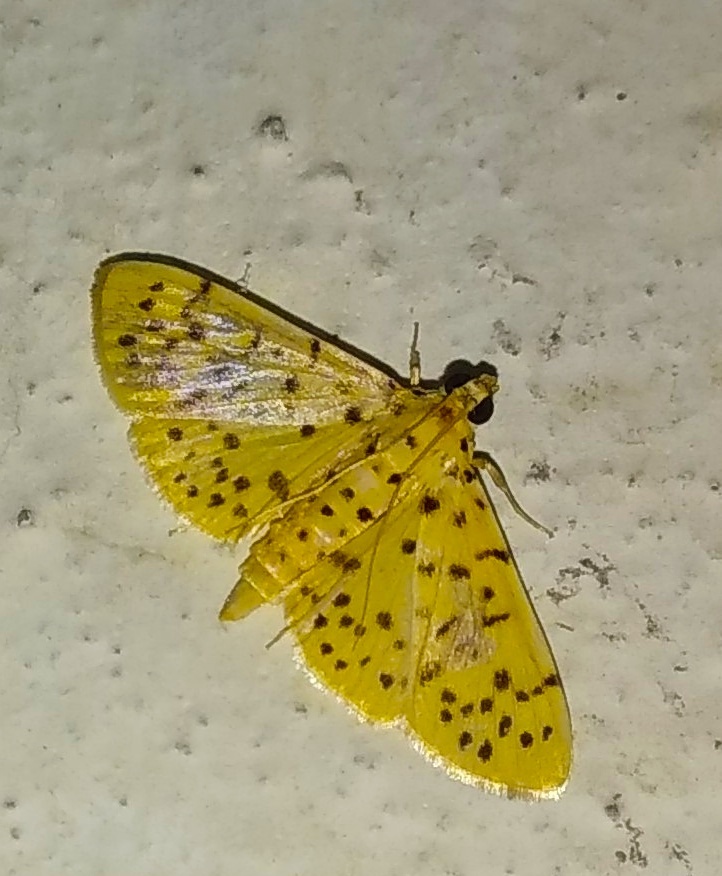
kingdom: Animalia
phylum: Arthropoda
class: Insecta
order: Lepidoptera
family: Crambidae
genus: Conogethes
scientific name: Conogethes punctiferalis
